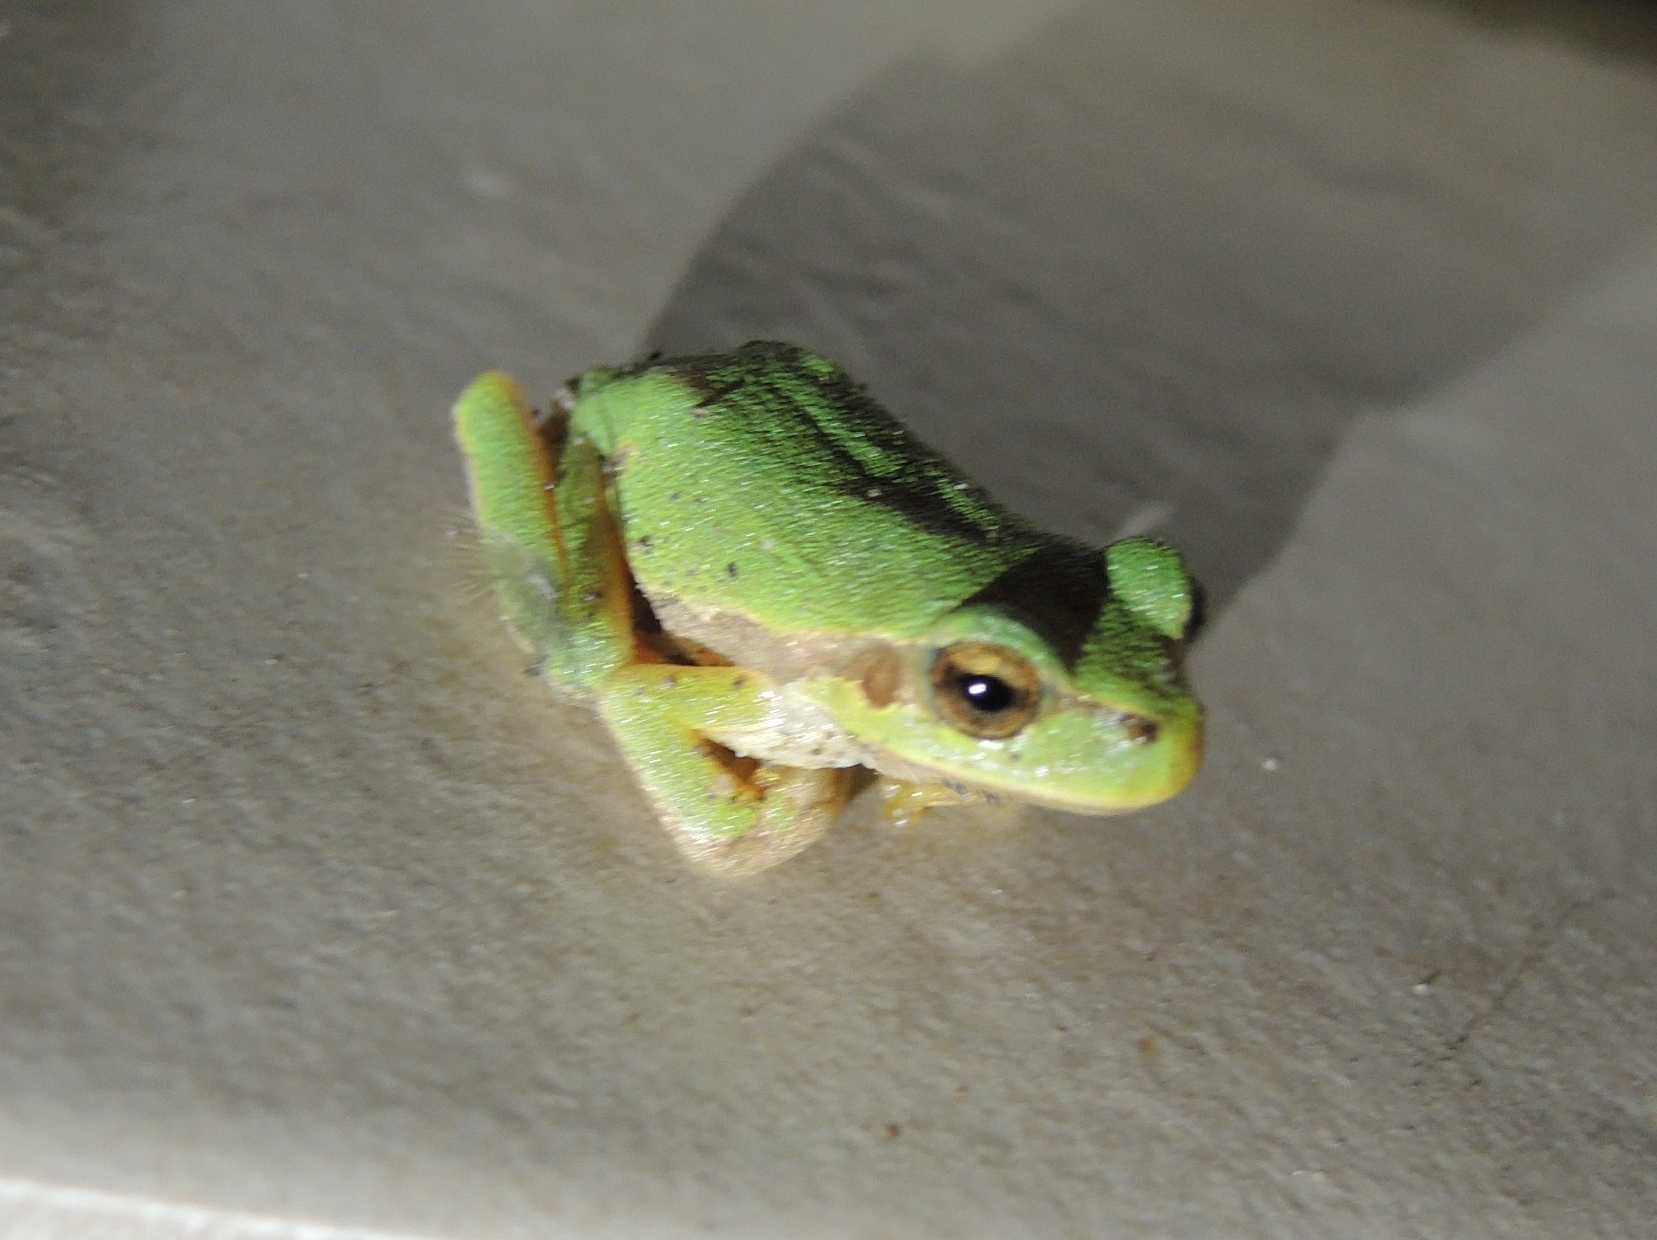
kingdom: Animalia
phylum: Chordata
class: Amphibia
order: Anura
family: Hylidae
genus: Hyla
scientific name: Hyla orientalis
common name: Caucasian treefrog
